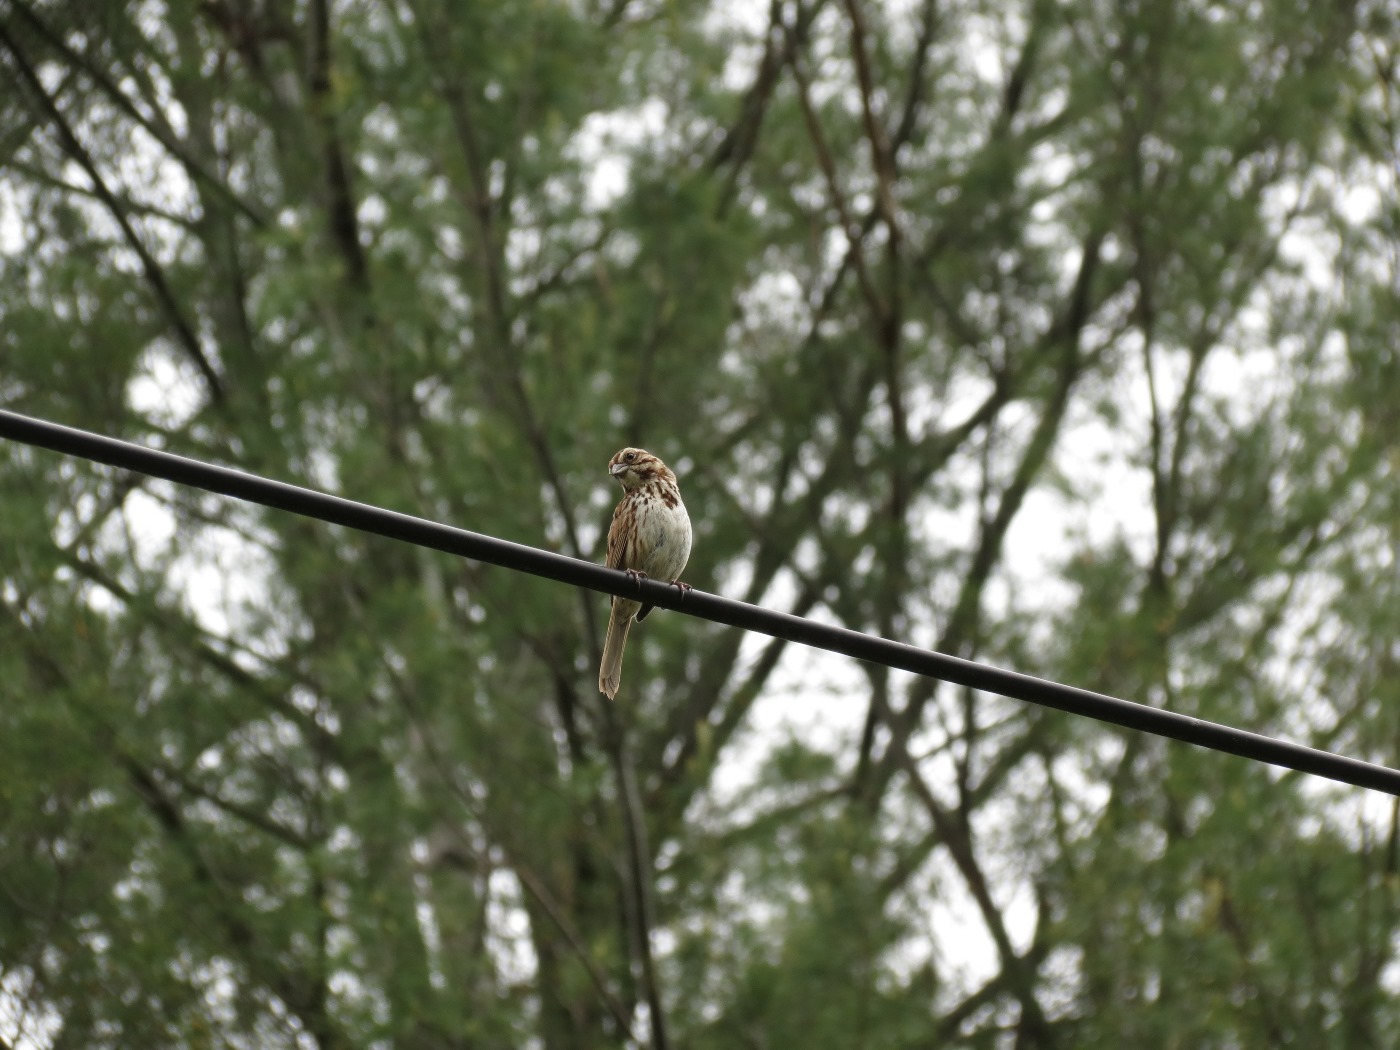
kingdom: Animalia
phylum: Chordata
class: Aves
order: Passeriformes
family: Passerellidae
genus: Melospiza
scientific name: Melospiza melodia
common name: Song sparrow
